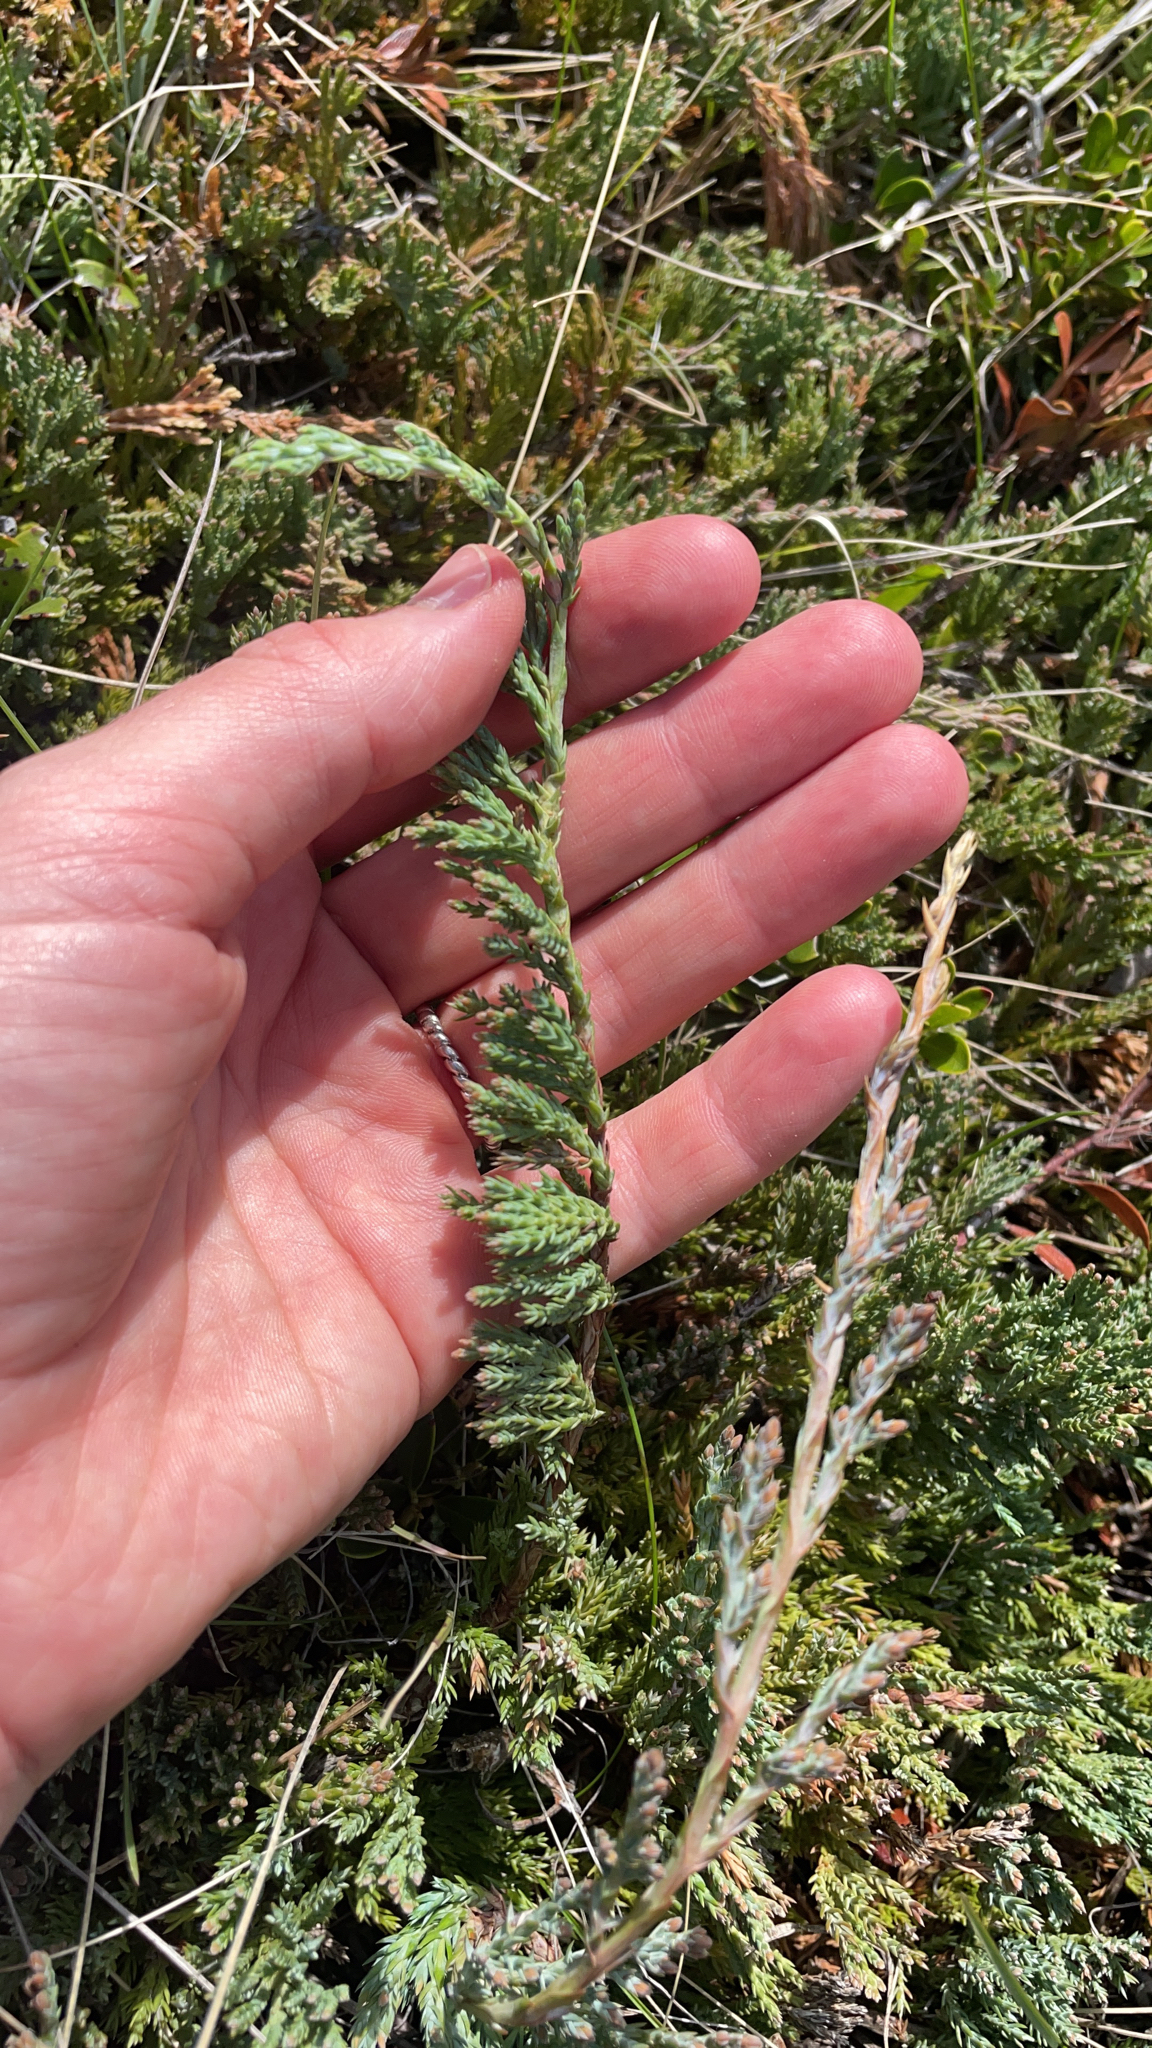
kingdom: Plantae
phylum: Tracheophyta
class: Pinopsida
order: Pinales
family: Cupressaceae
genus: Juniperus
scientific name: Juniperus horizontalis
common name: Creeping juniper
